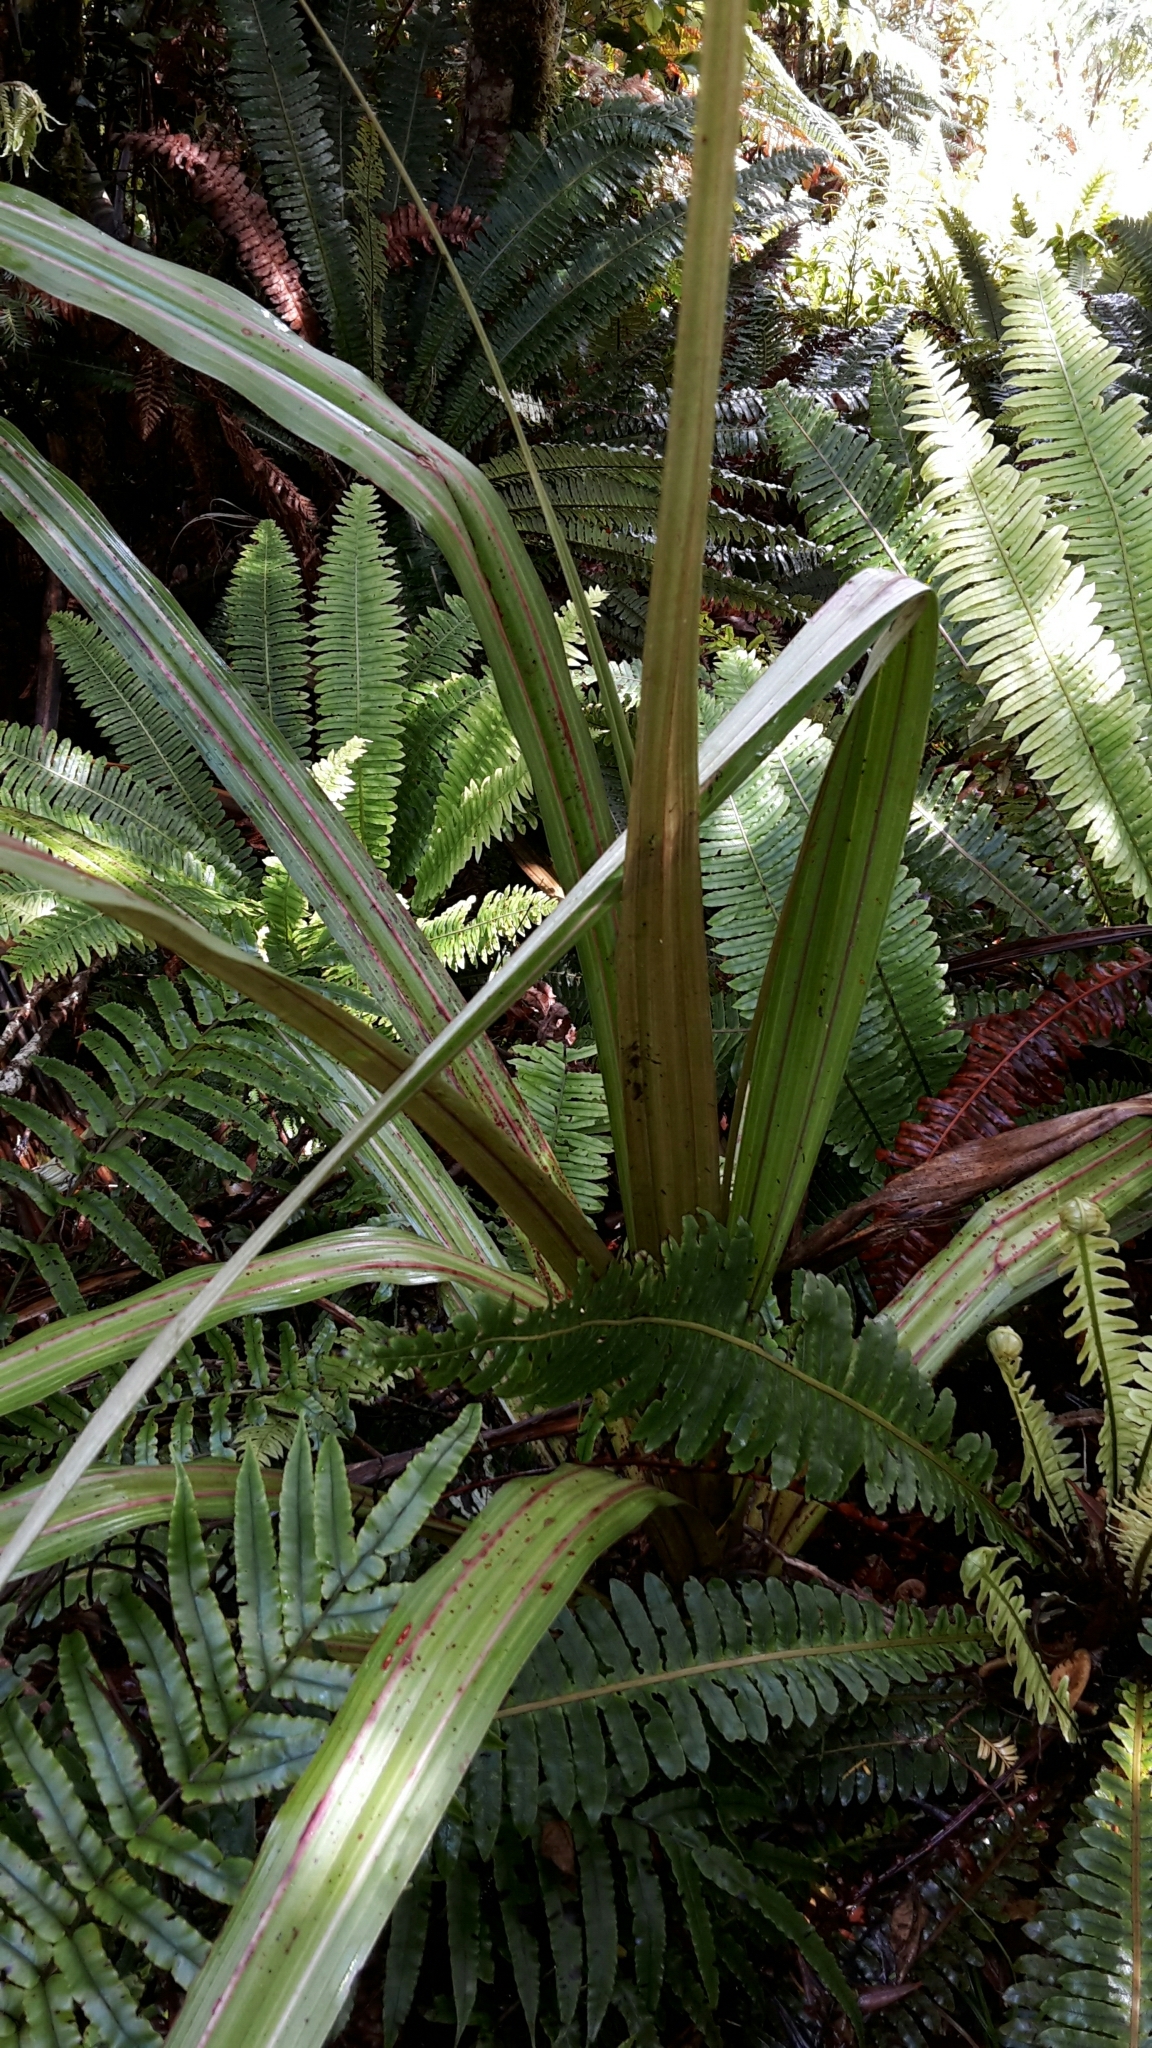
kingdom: Plantae
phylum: Tracheophyta
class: Liliopsida
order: Asparagales
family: Asteliaceae
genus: Astelia
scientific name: Astelia fragrans
